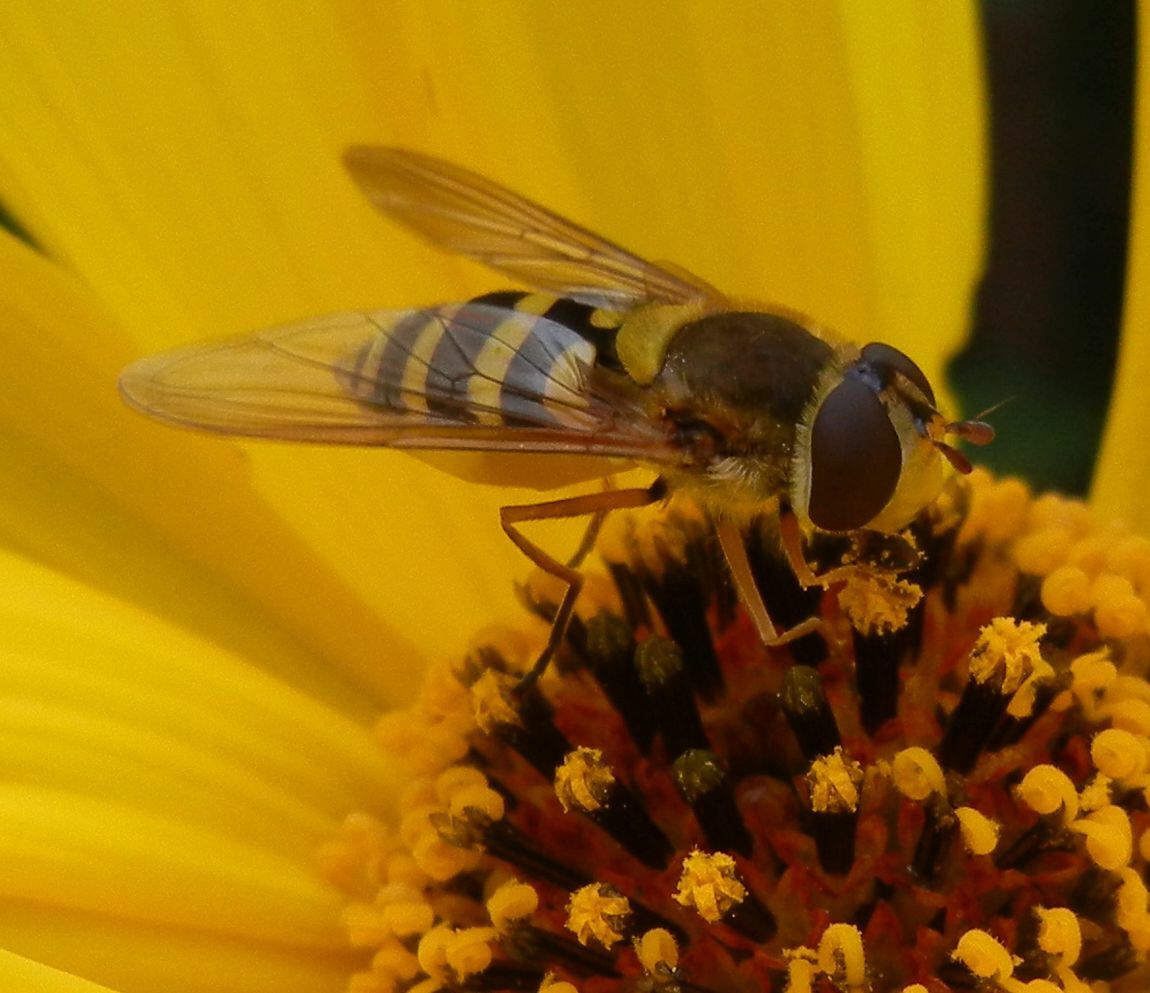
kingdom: Animalia
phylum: Arthropoda
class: Insecta
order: Diptera
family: Syrphidae
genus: Syrphus
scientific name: Syrphus ribesii
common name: Common flower fly
